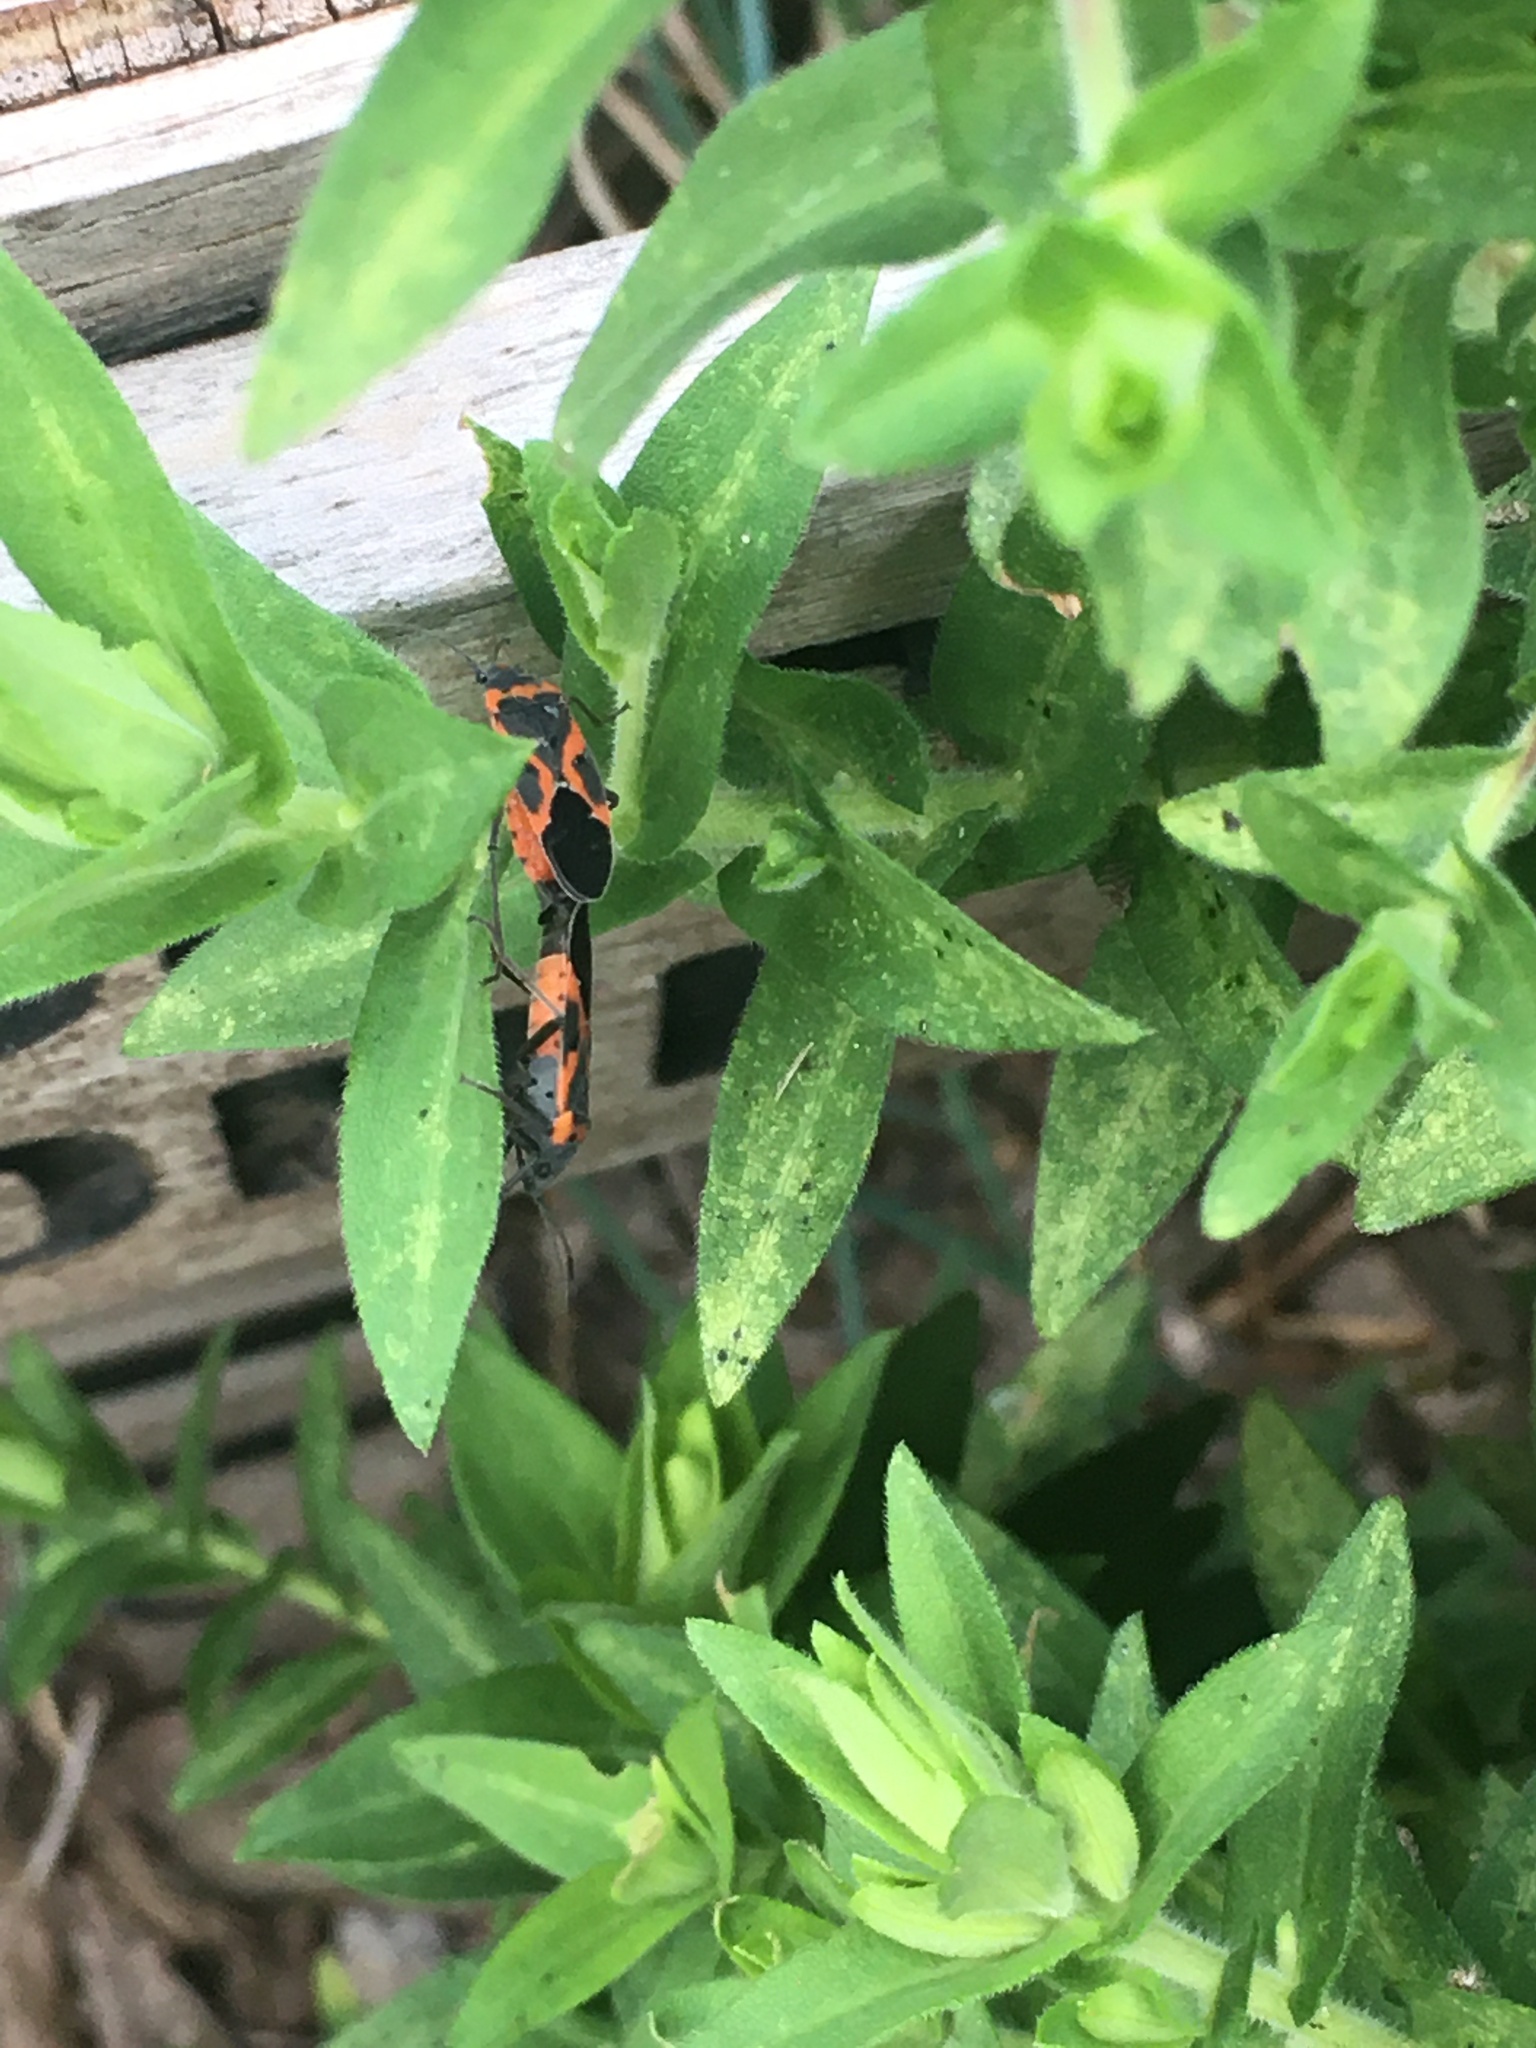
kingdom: Animalia
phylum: Arthropoda
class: Insecta
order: Hemiptera
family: Lygaeidae
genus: Lygaeus
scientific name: Lygaeus kalmii
